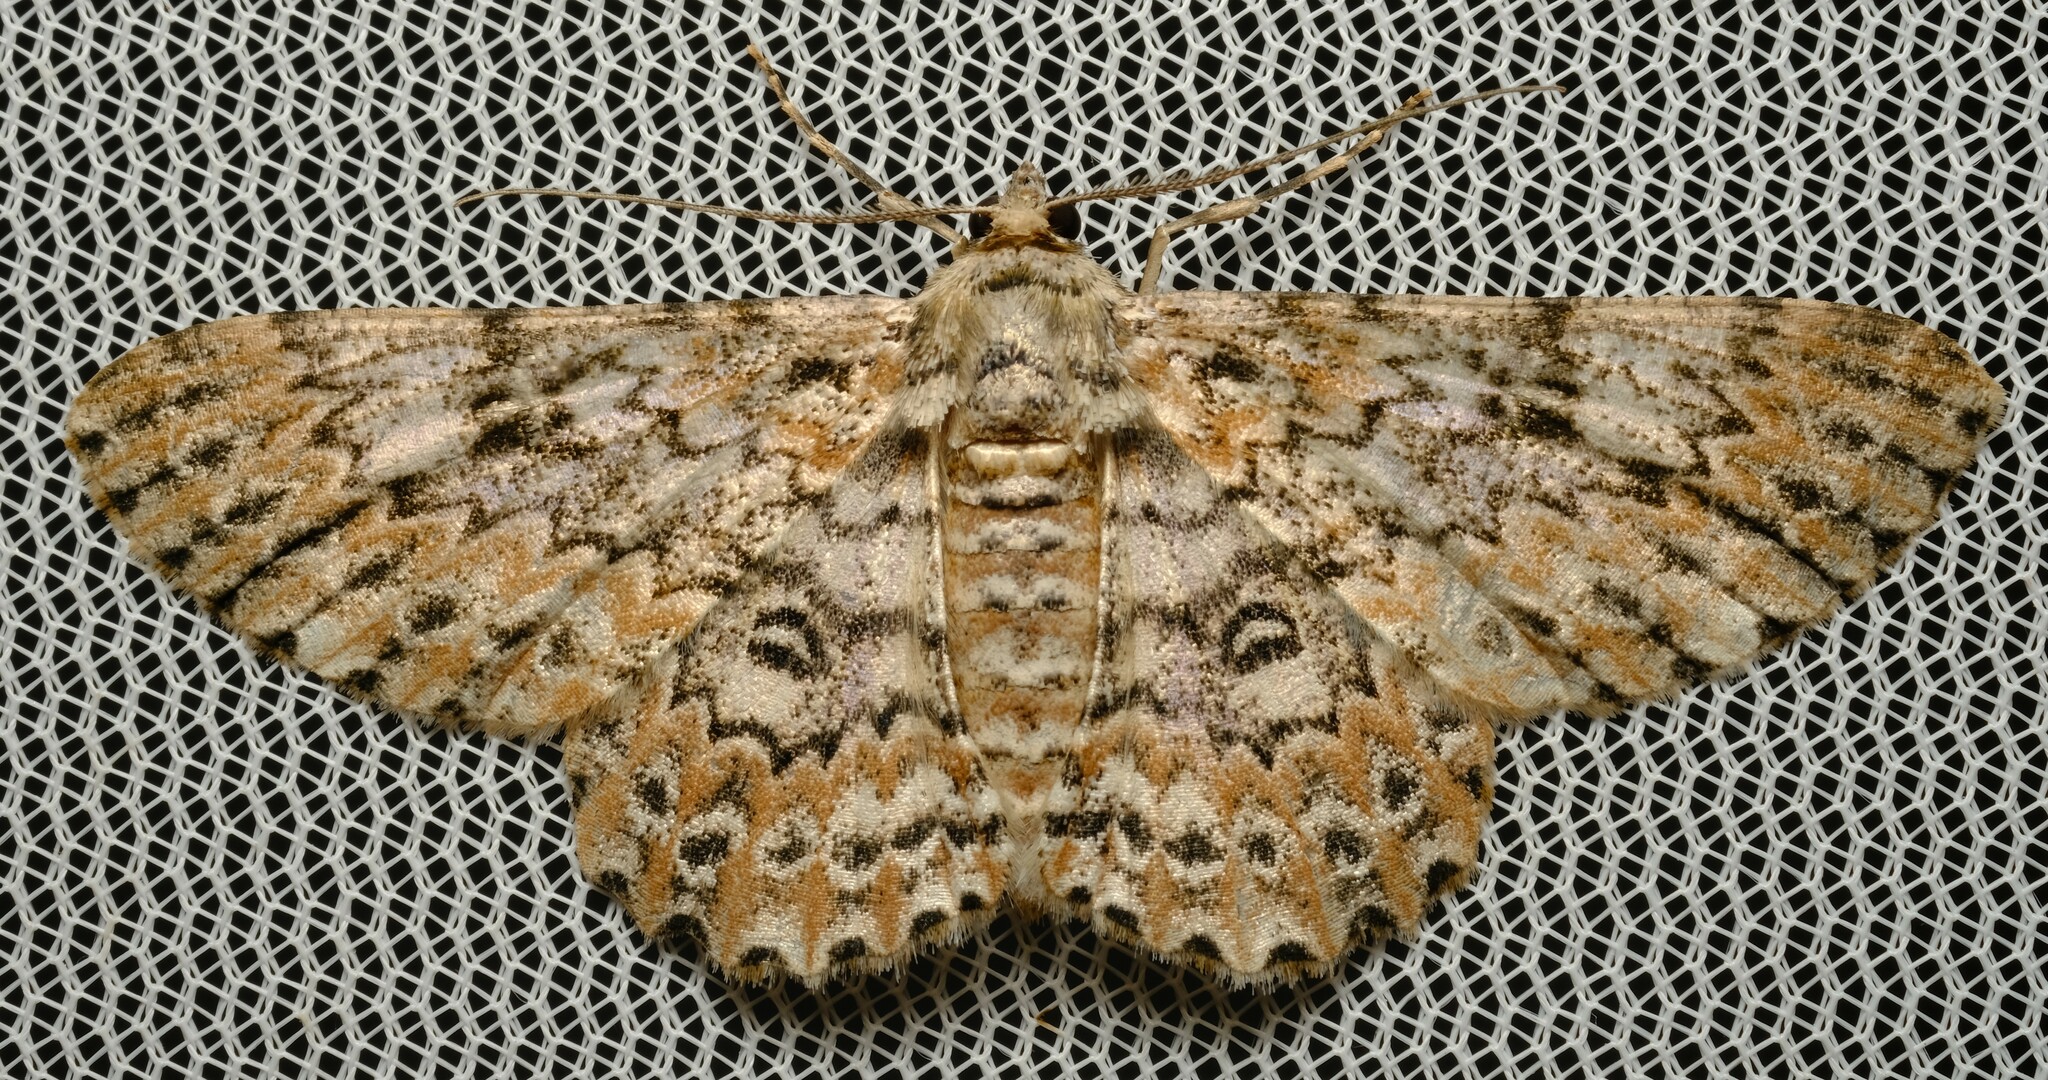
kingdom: Animalia
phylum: Arthropoda
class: Insecta
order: Lepidoptera
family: Geometridae
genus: Cleora
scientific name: Cleora sabulata
